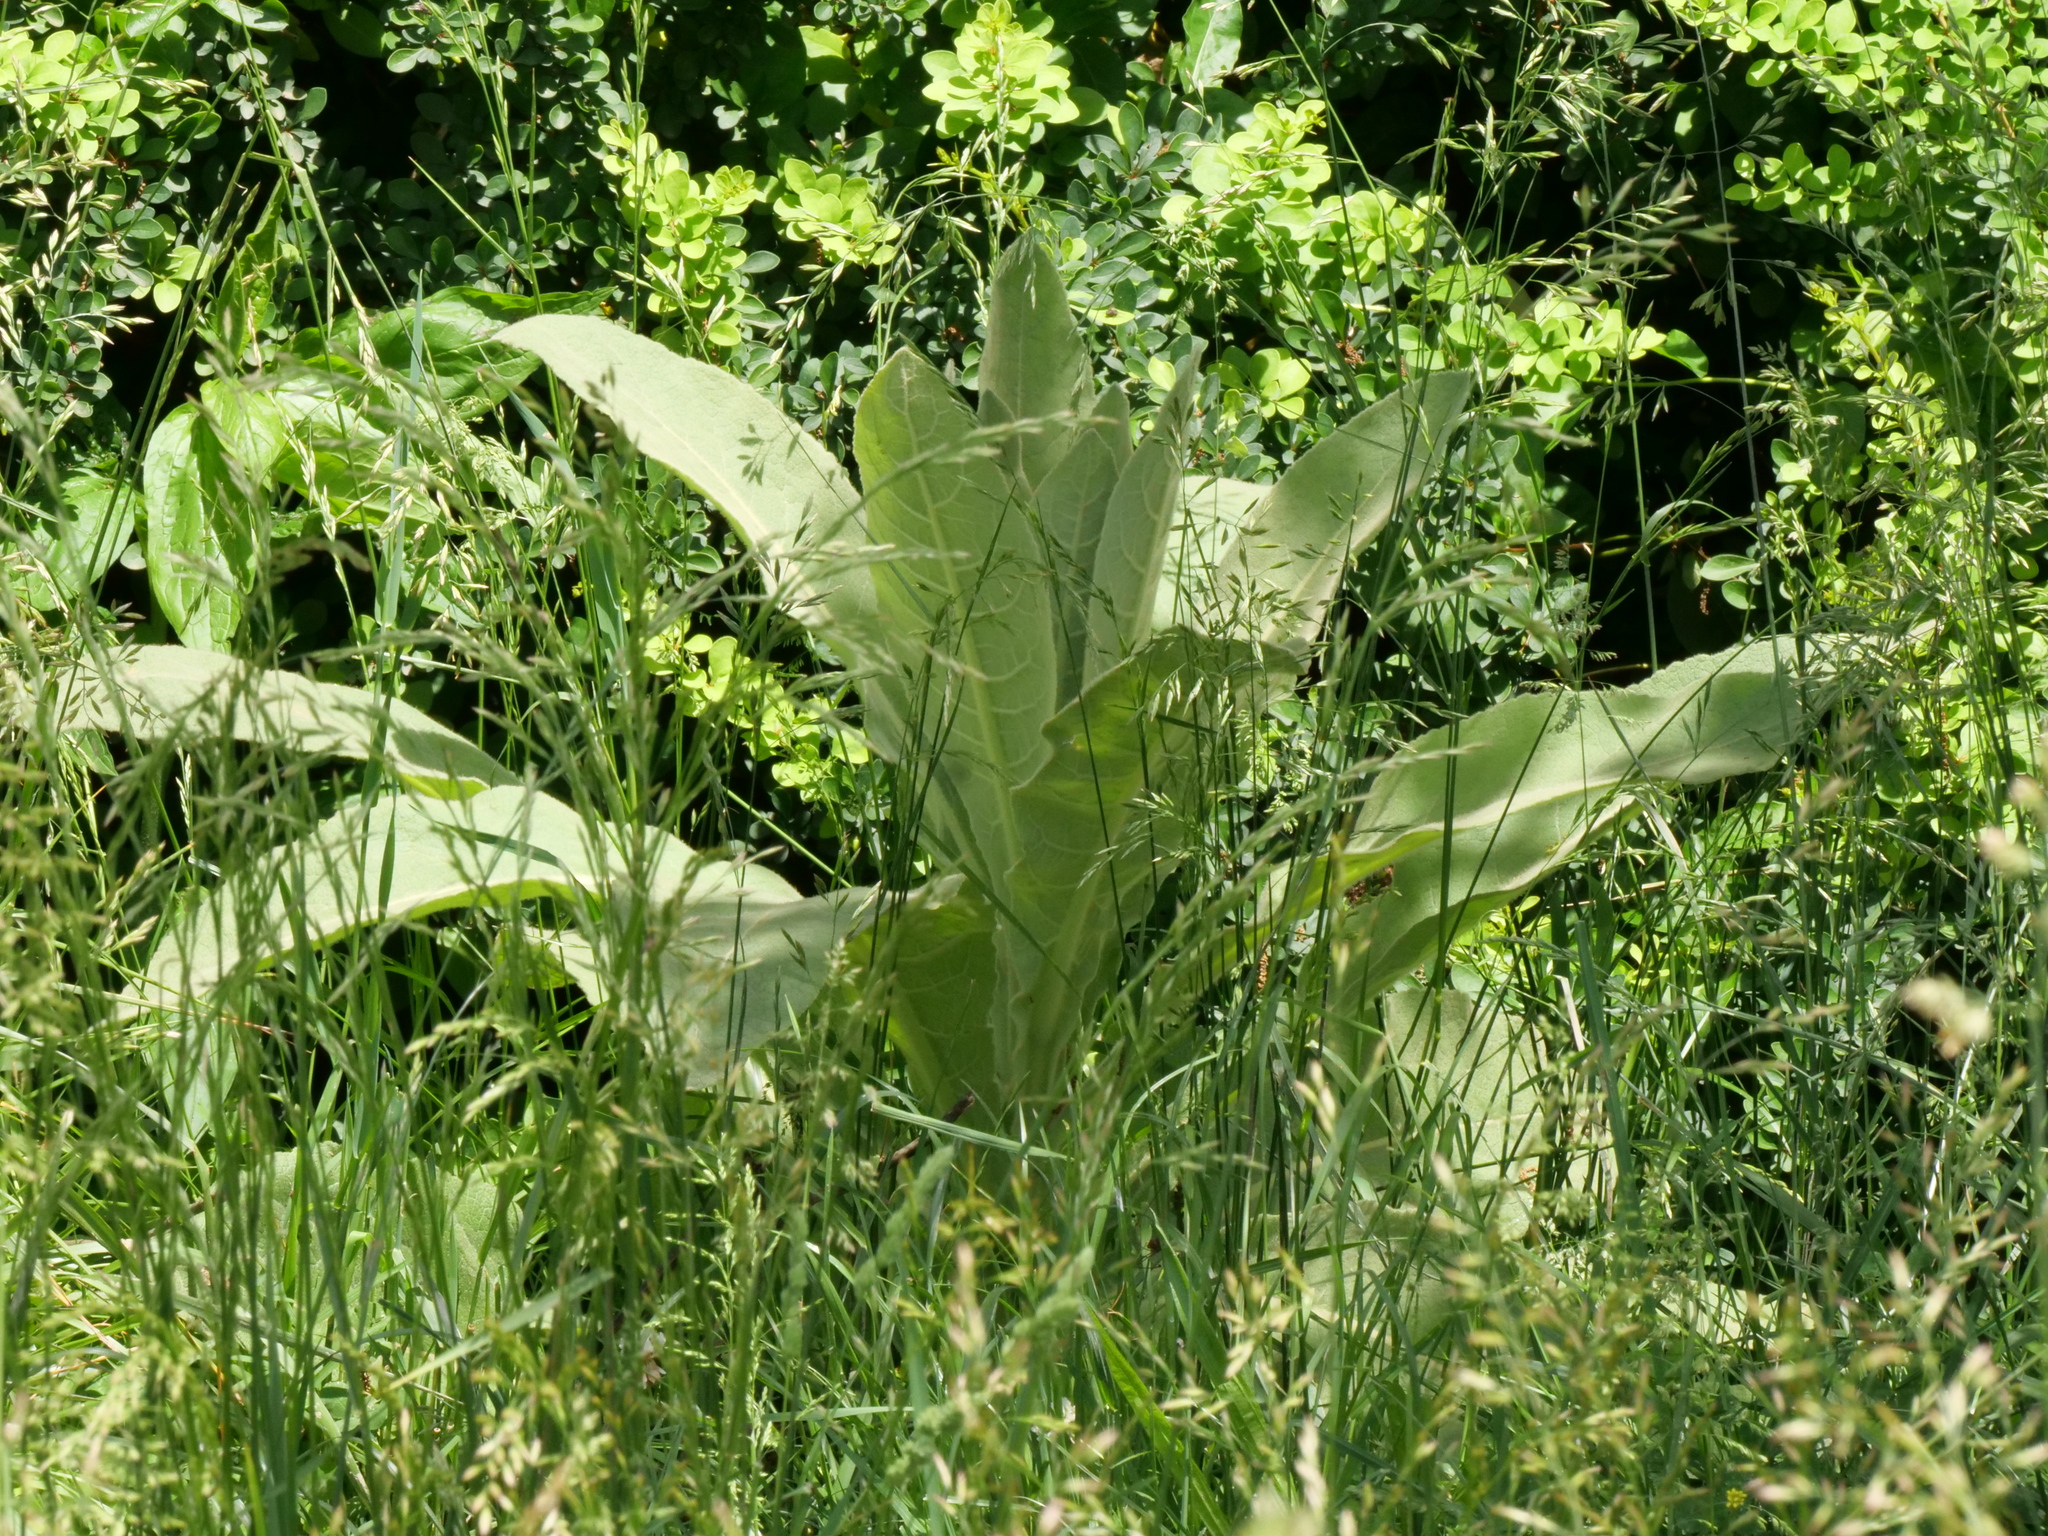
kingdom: Plantae
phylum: Tracheophyta
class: Magnoliopsida
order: Lamiales
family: Scrophulariaceae
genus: Verbascum
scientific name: Verbascum thapsus
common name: Common mullein
